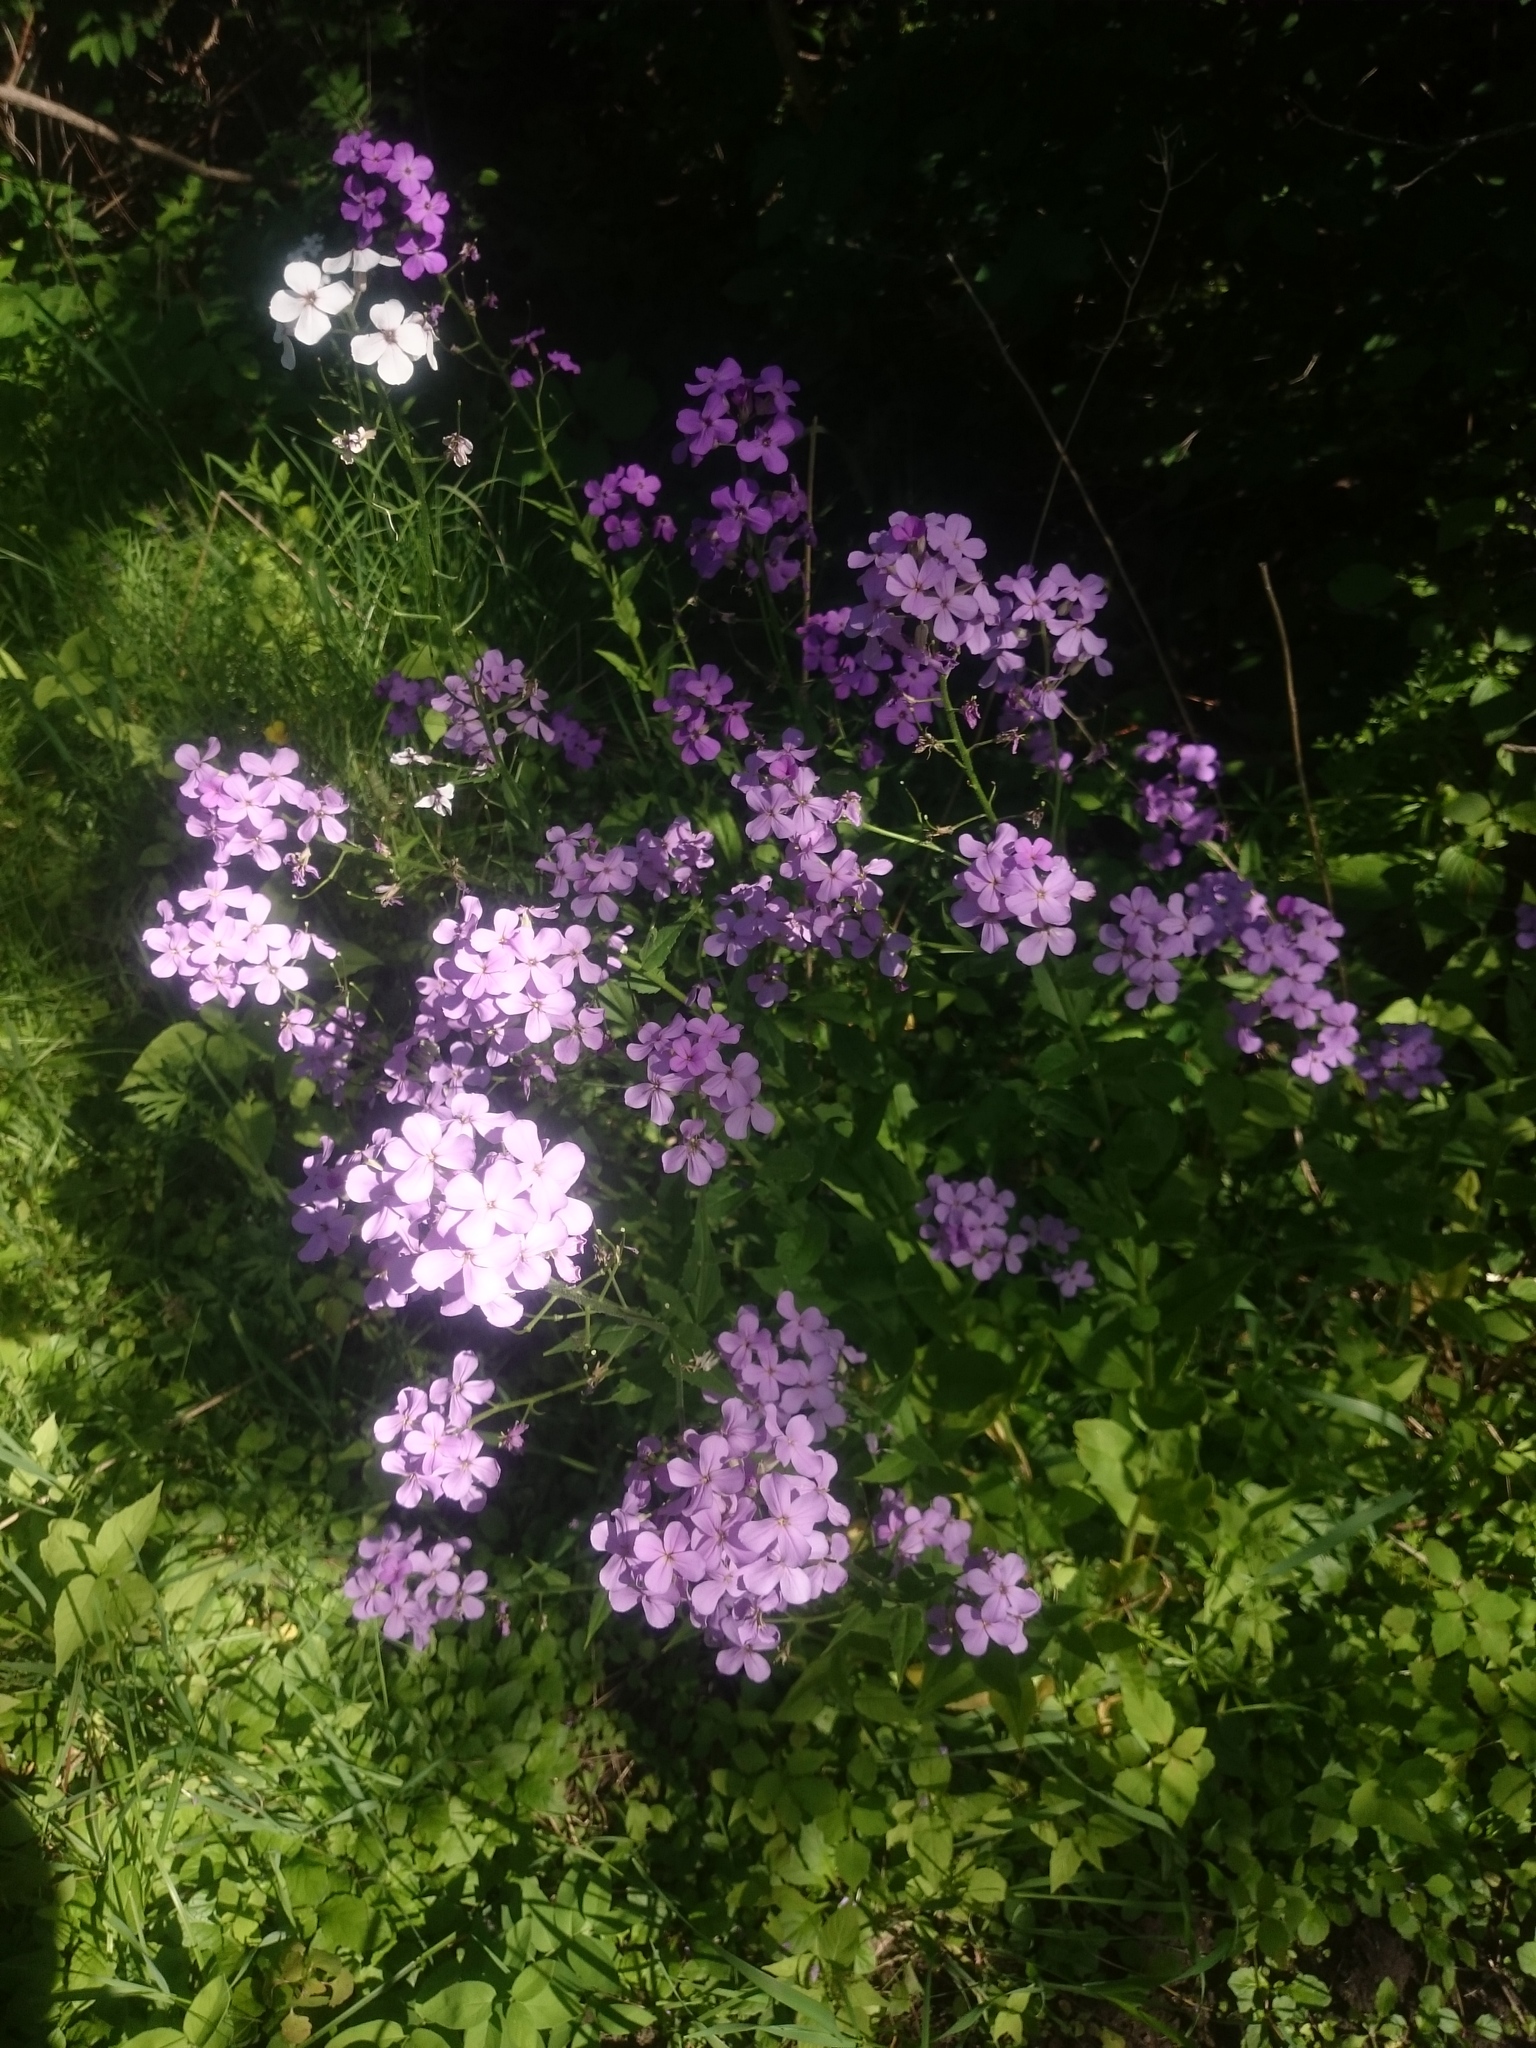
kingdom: Plantae
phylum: Tracheophyta
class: Magnoliopsida
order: Brassicales
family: Brassicaceae
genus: Hesperis
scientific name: Hesperis matronalis
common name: Dame's-violet
